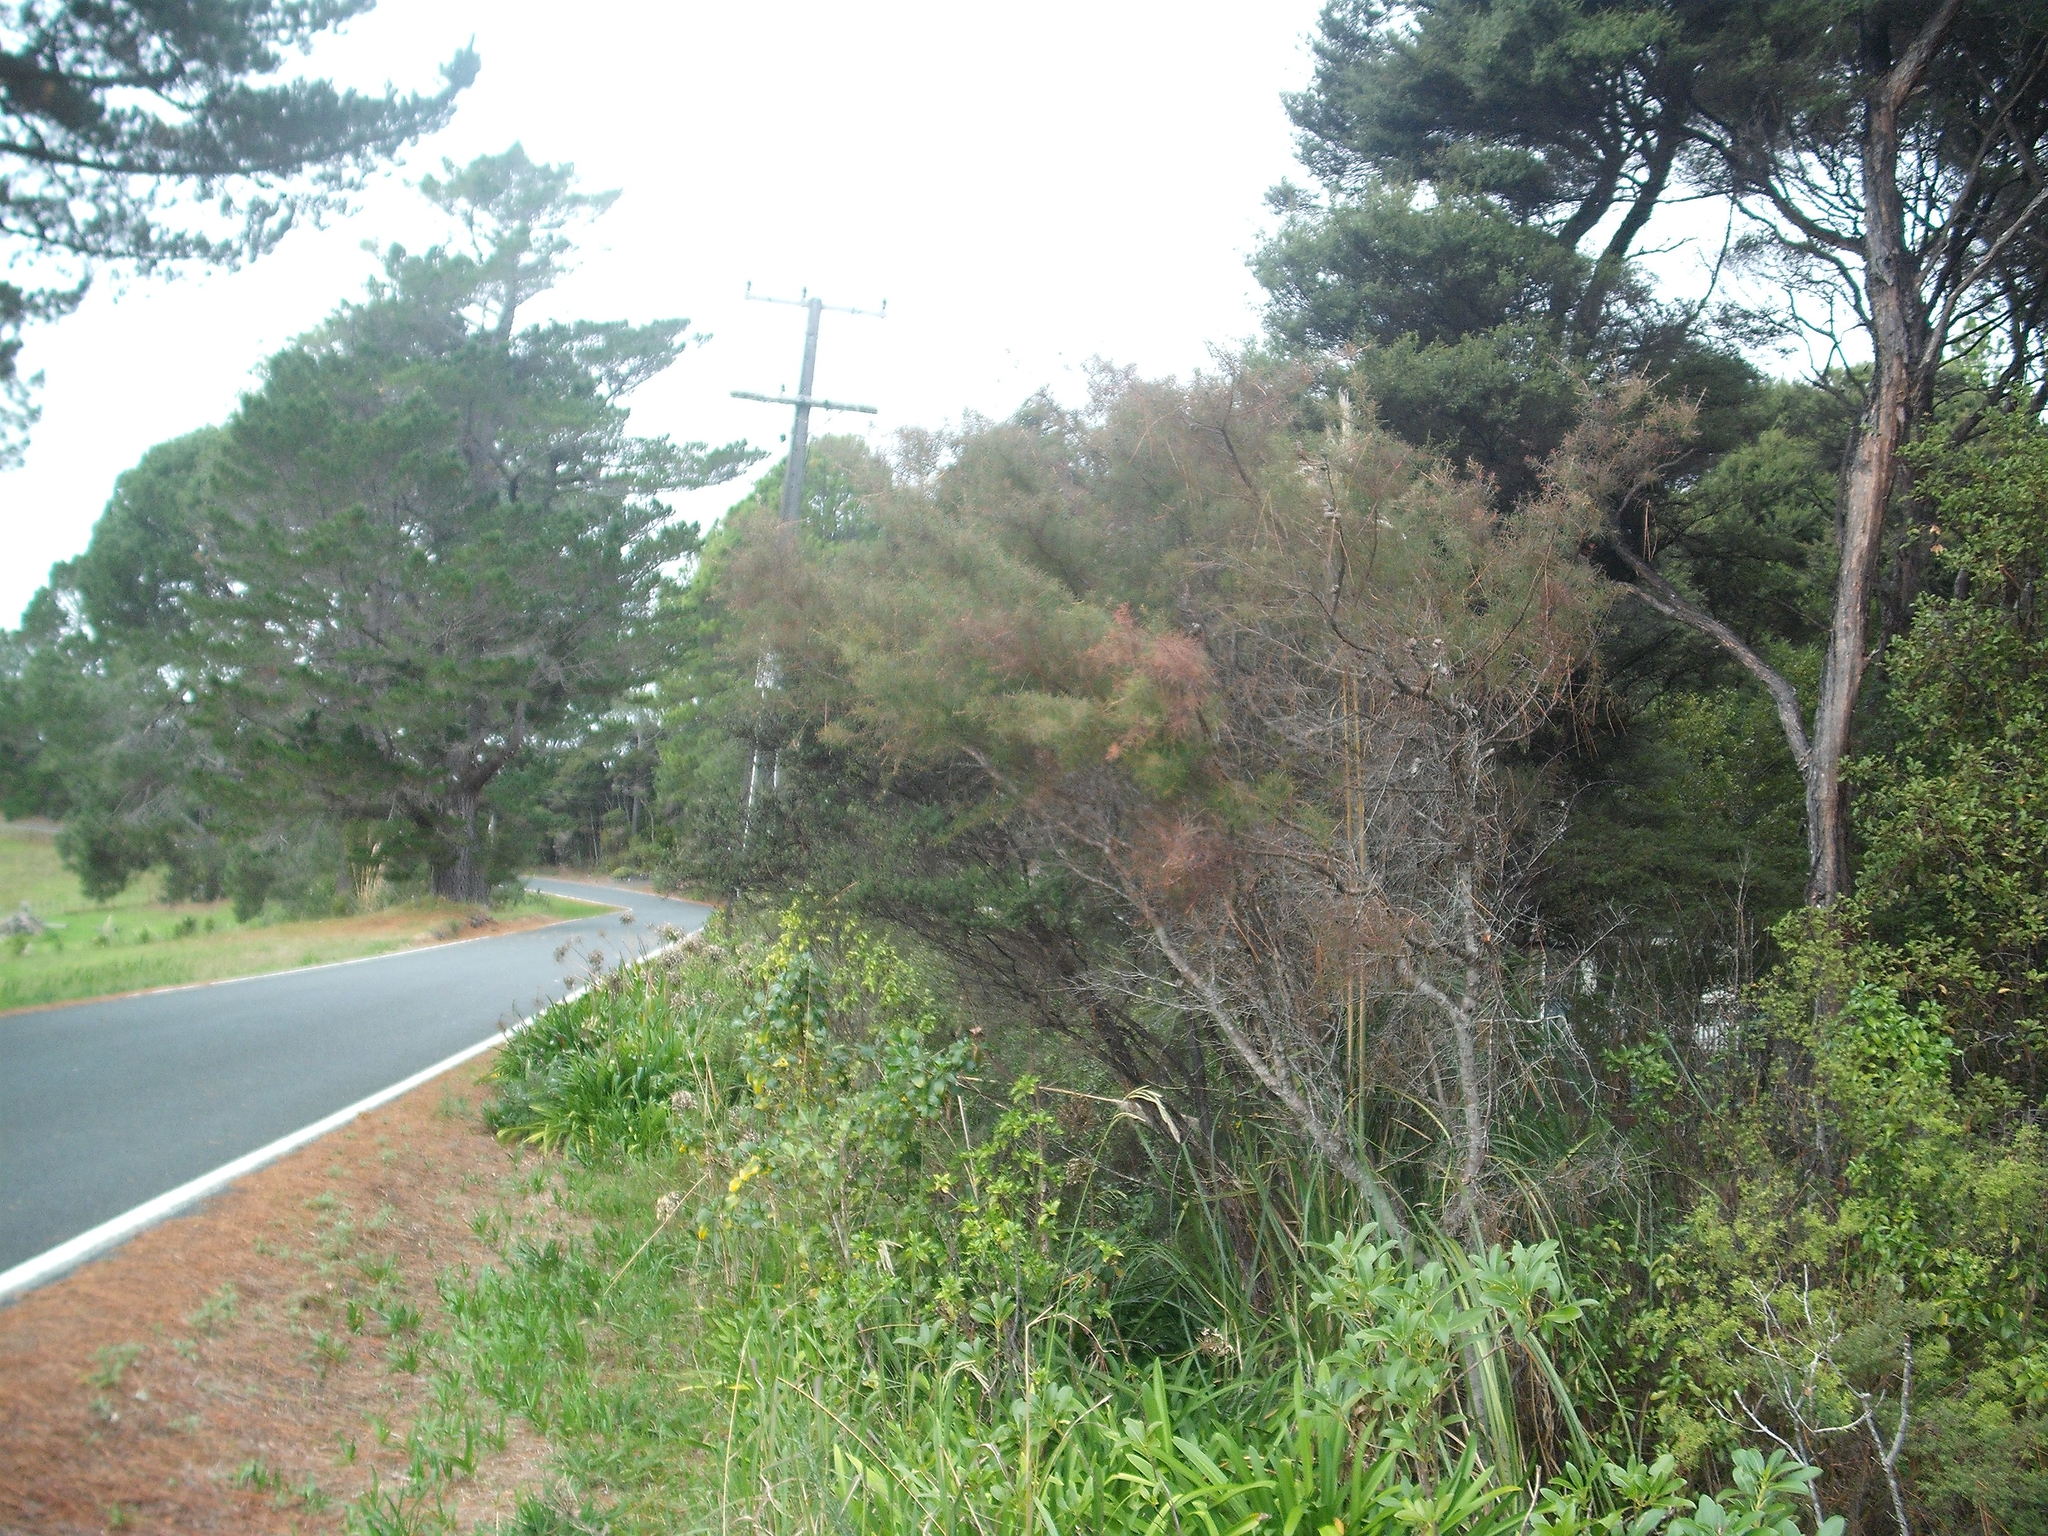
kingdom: Plantae
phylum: Tracheophyta
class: Magnoliopsida
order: Proteales
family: Proteaceae
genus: Hakea
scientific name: Hakea sericea
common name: Needle bush
